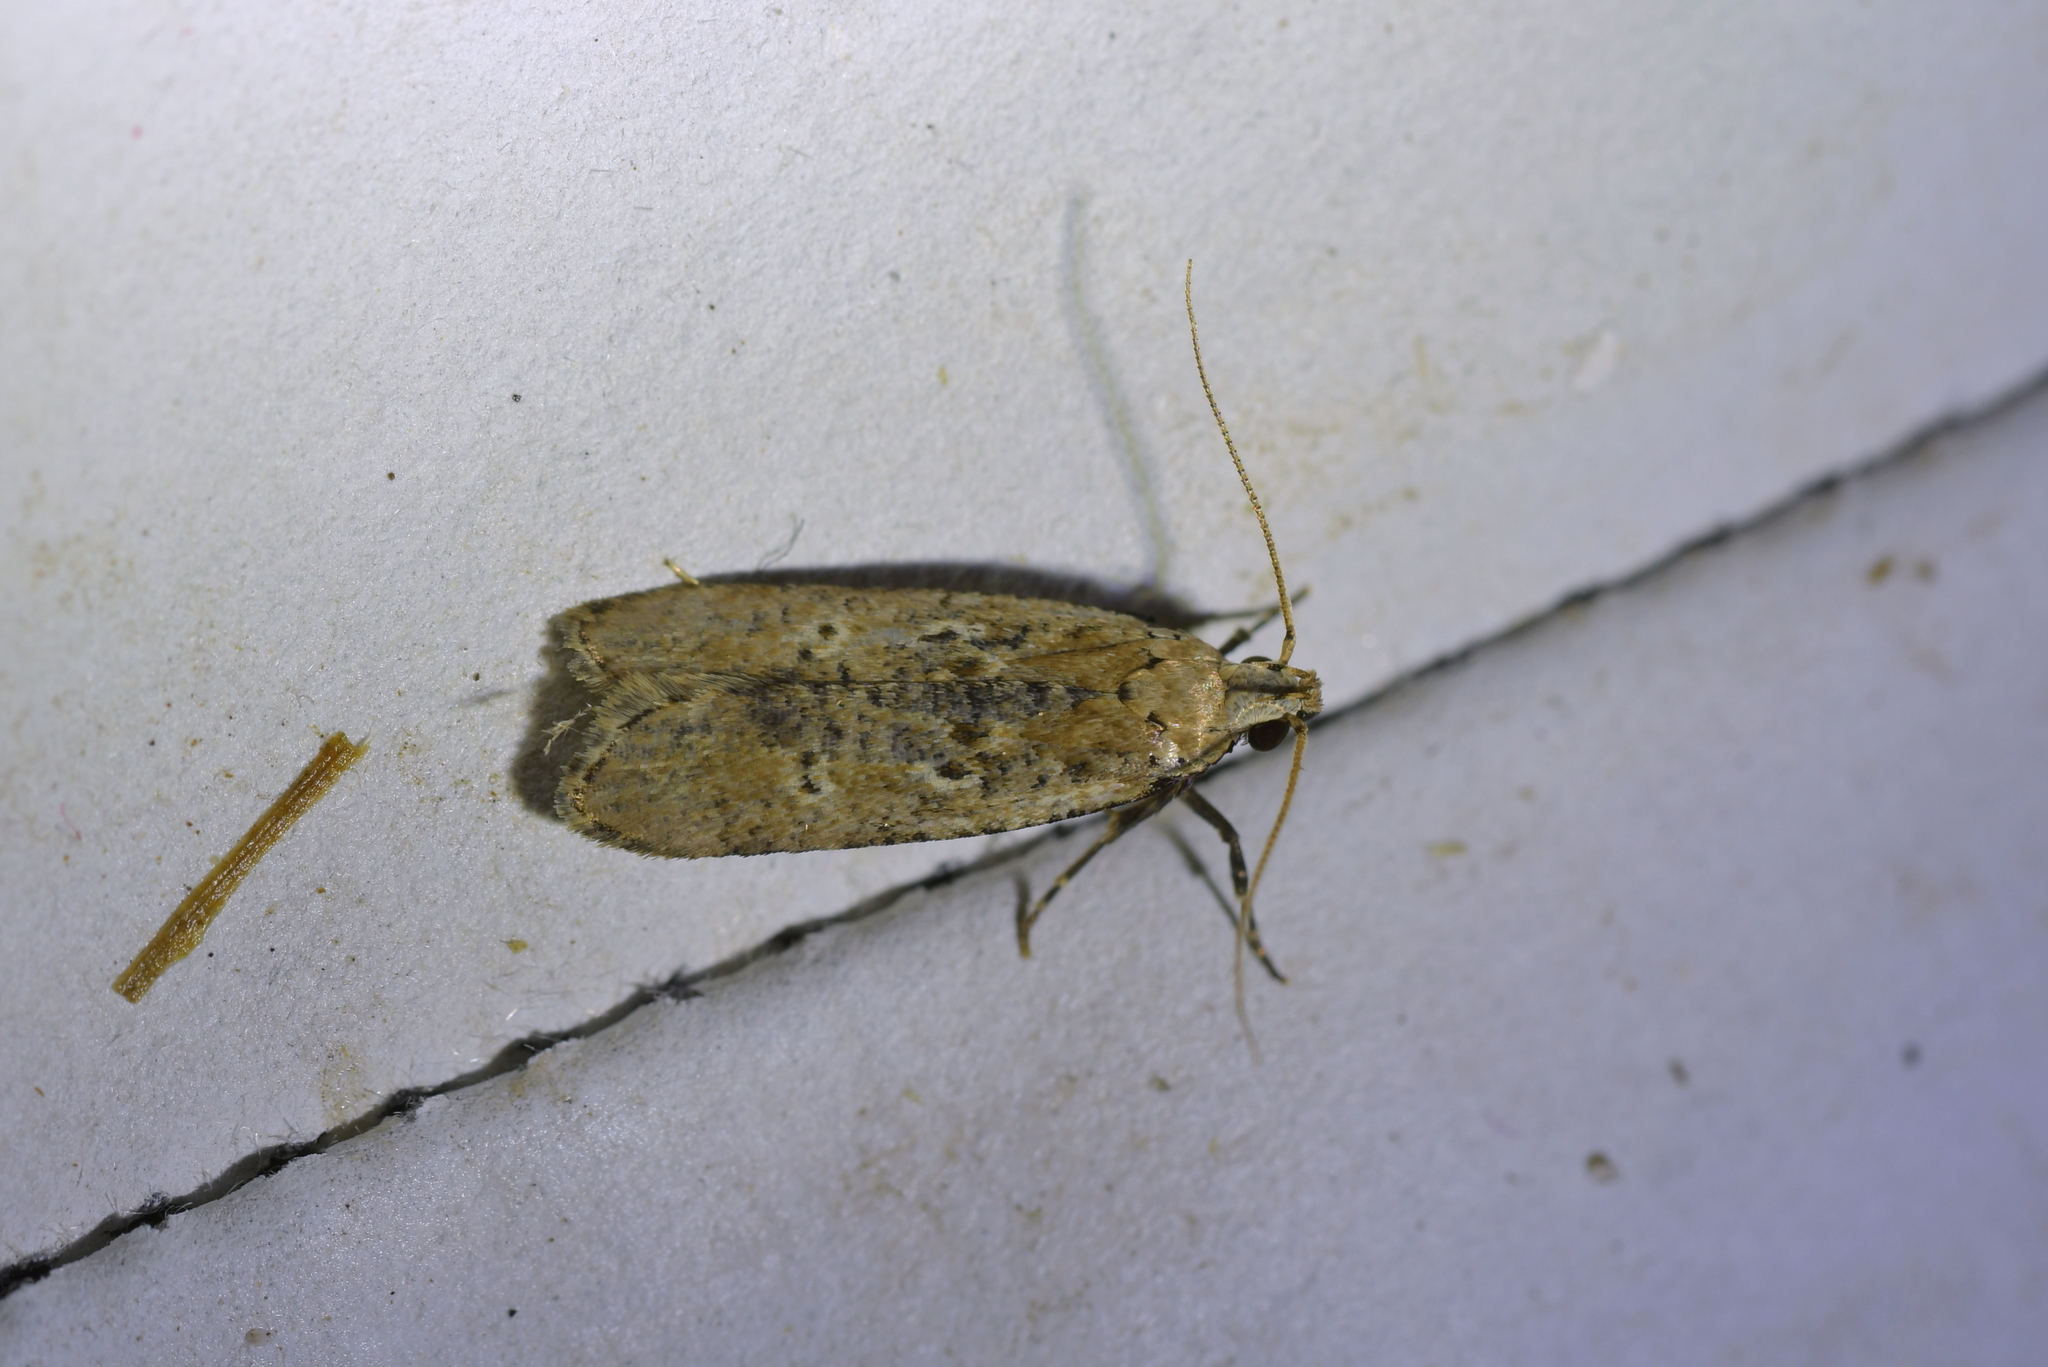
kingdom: Animalia
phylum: Arthropoda
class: Insecta
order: Lepidoptera
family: Gelechiidae
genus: Anisoplaca
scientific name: Anisoplaca achyrota
